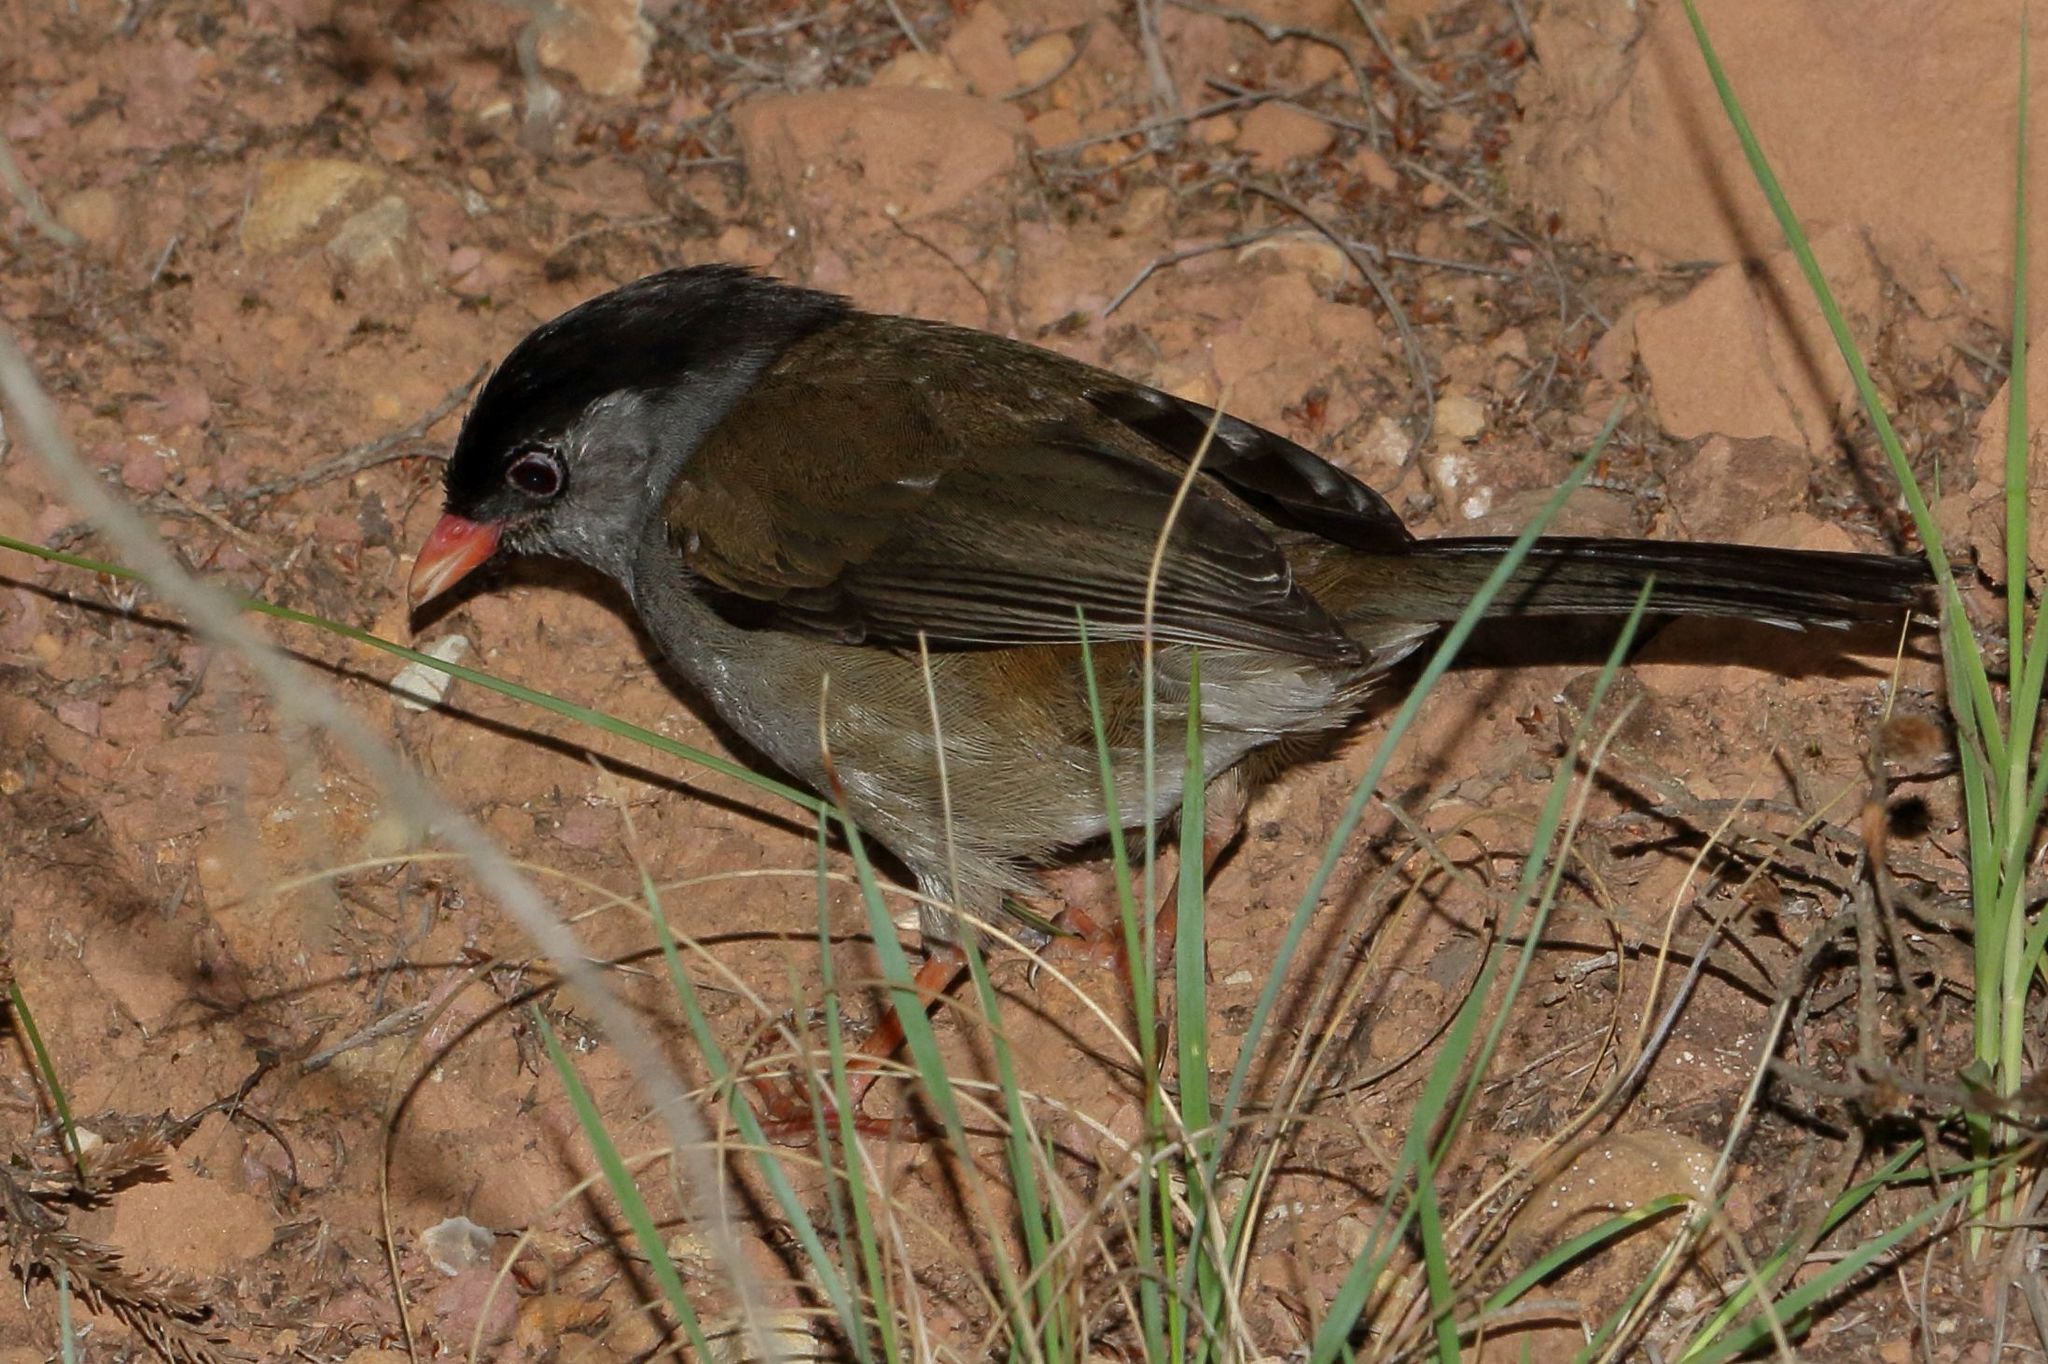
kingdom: Animalia
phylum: Chordata
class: Aves
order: Passeriformes
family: Sylviidae
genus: Lioptilus
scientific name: Lioptilus nigricapillus
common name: Bush blackcap
